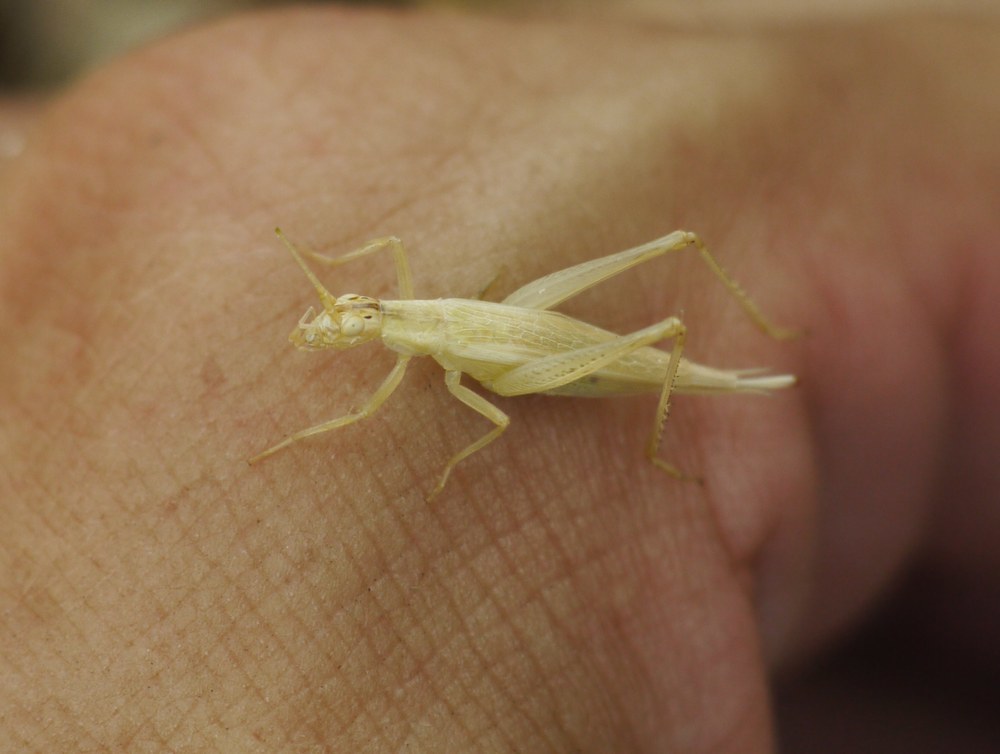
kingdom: Animalia
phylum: Arthropoda
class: Insecta
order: Orthoptera
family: Gryllidae
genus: Oecanthus
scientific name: Oecanthus pellucens
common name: Tree-cricket
